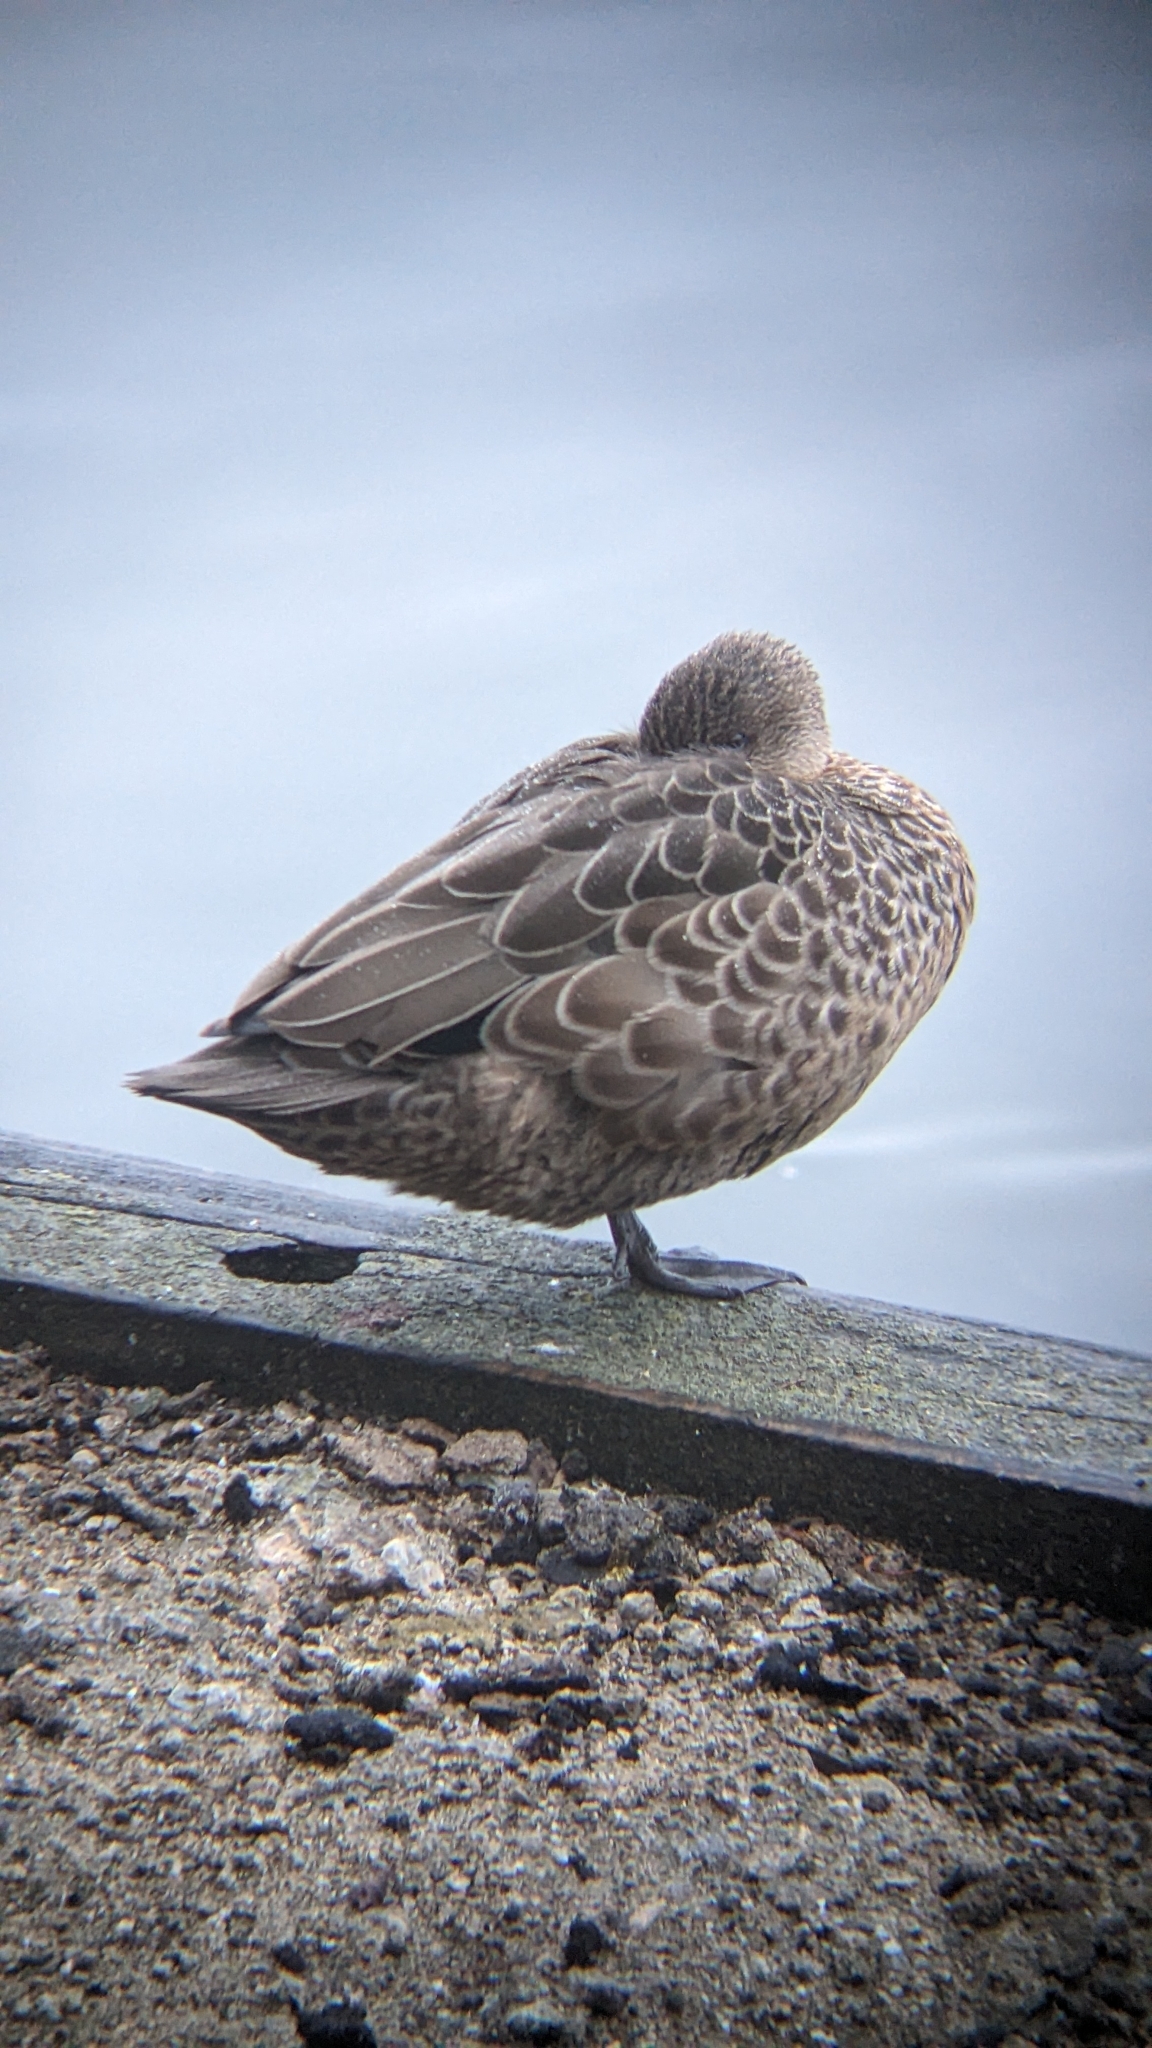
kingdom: Animalia
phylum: Chordata
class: Aves
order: Anseriformes
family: Anatidae
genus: Anas
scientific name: Anas gracilis
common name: Grey teal
